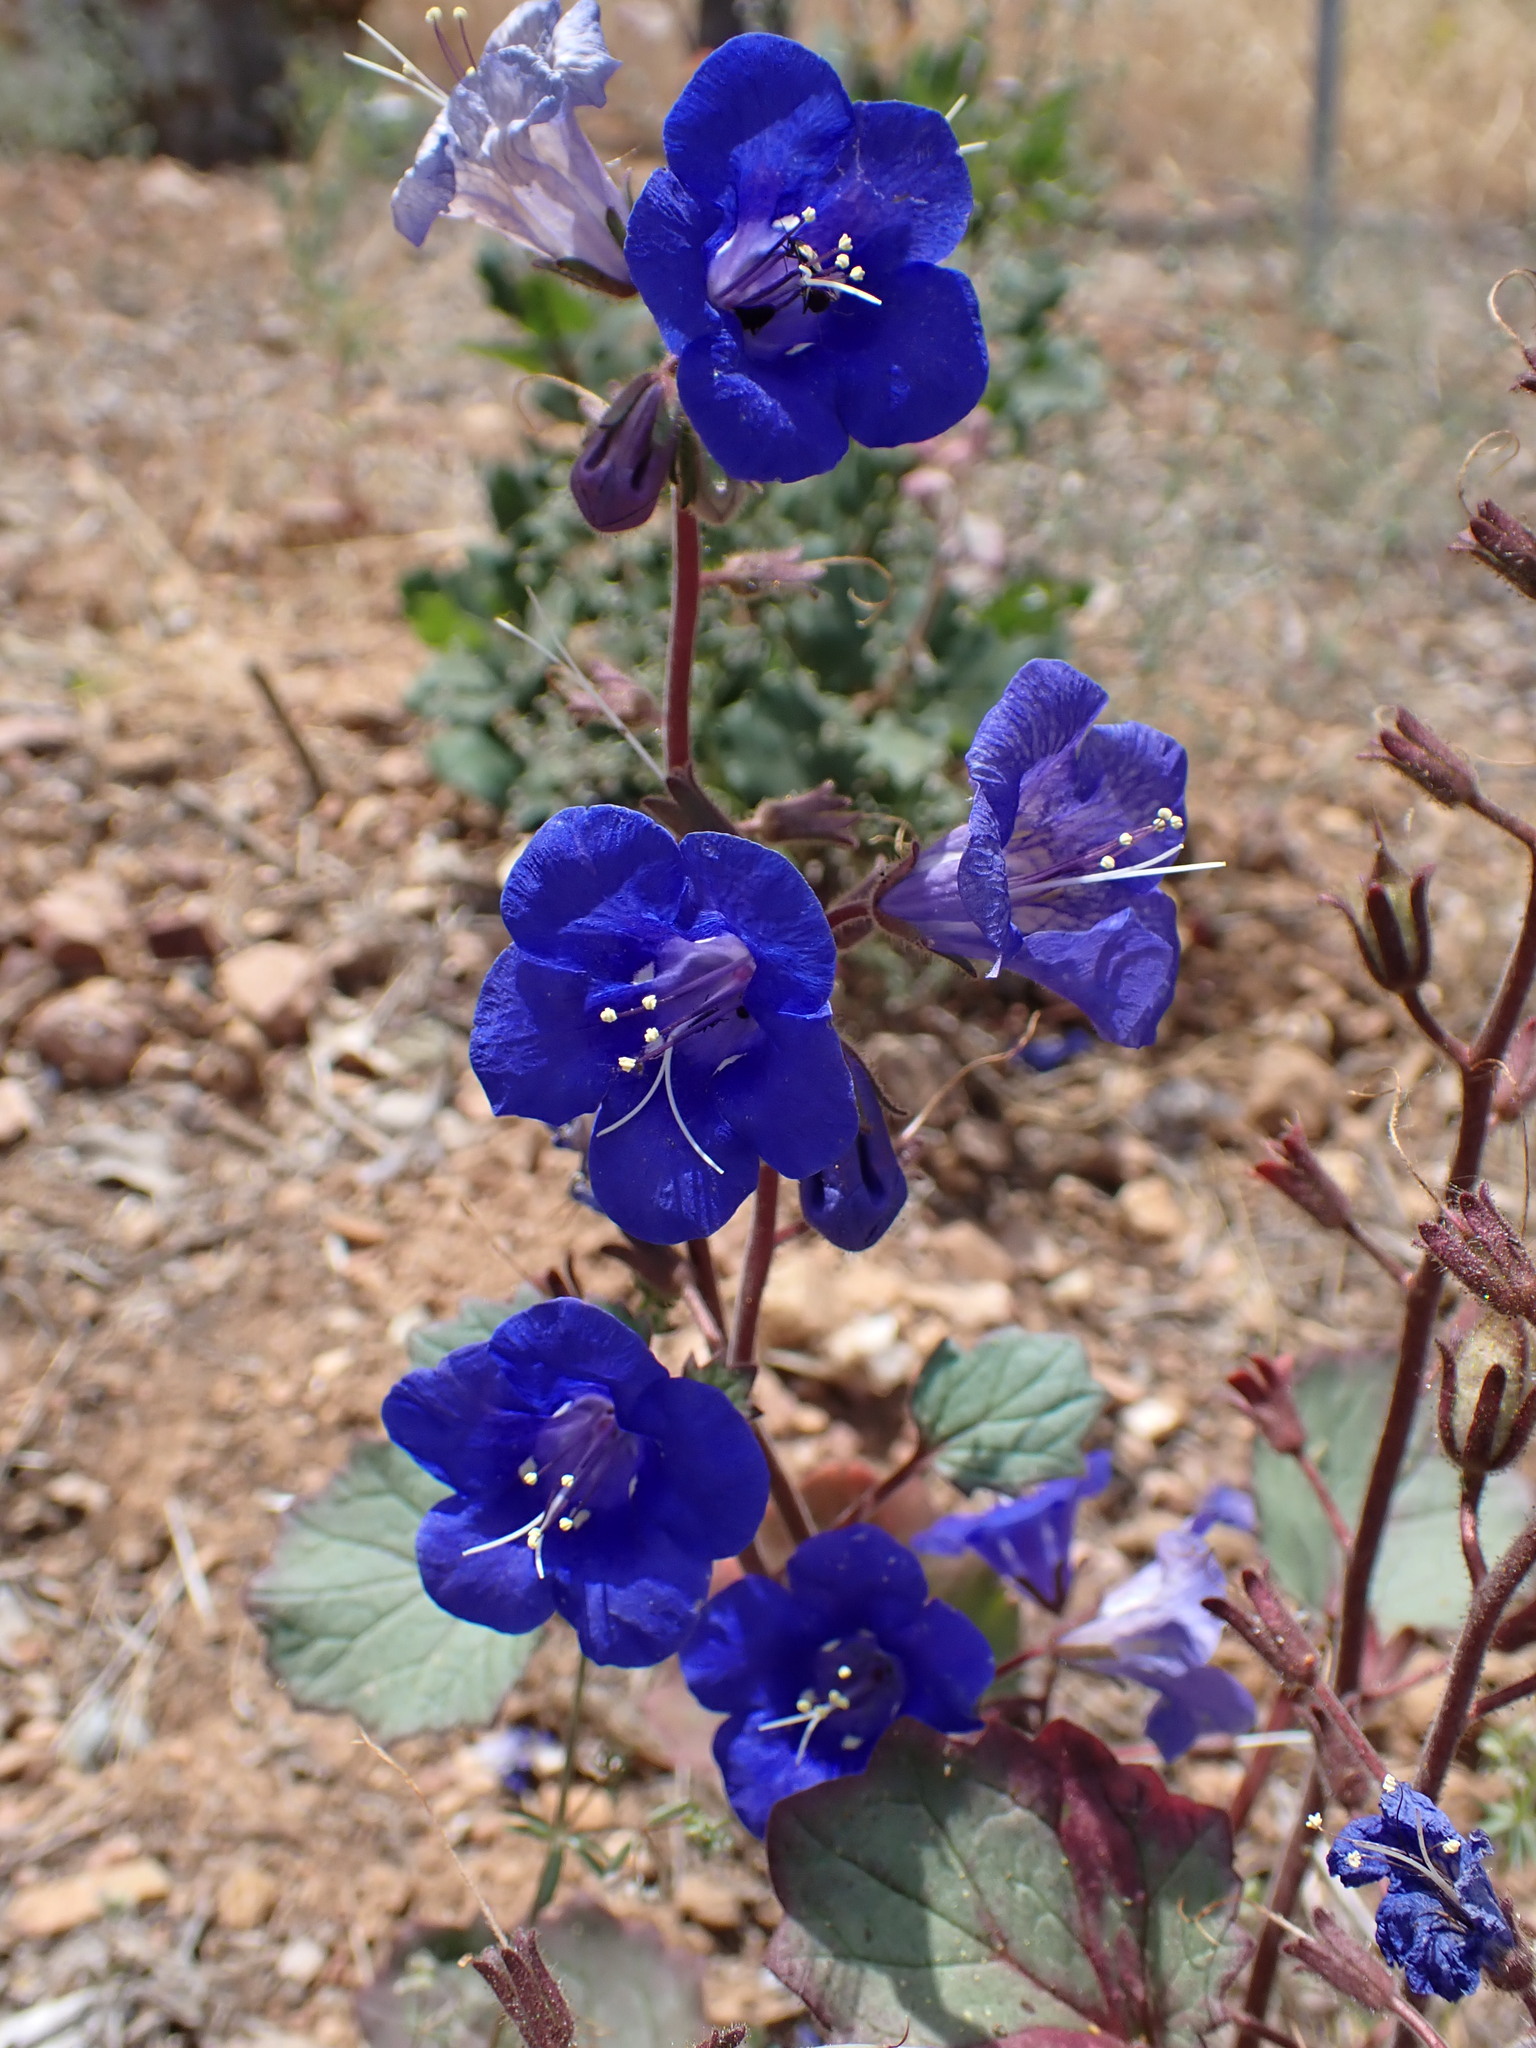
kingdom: Plantae
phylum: Tracheophyta
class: Magnoliopsida
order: Boraginales
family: Hydrophyllaceae
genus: Phacelia
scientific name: Phacelia campanularia
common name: California bluebell
